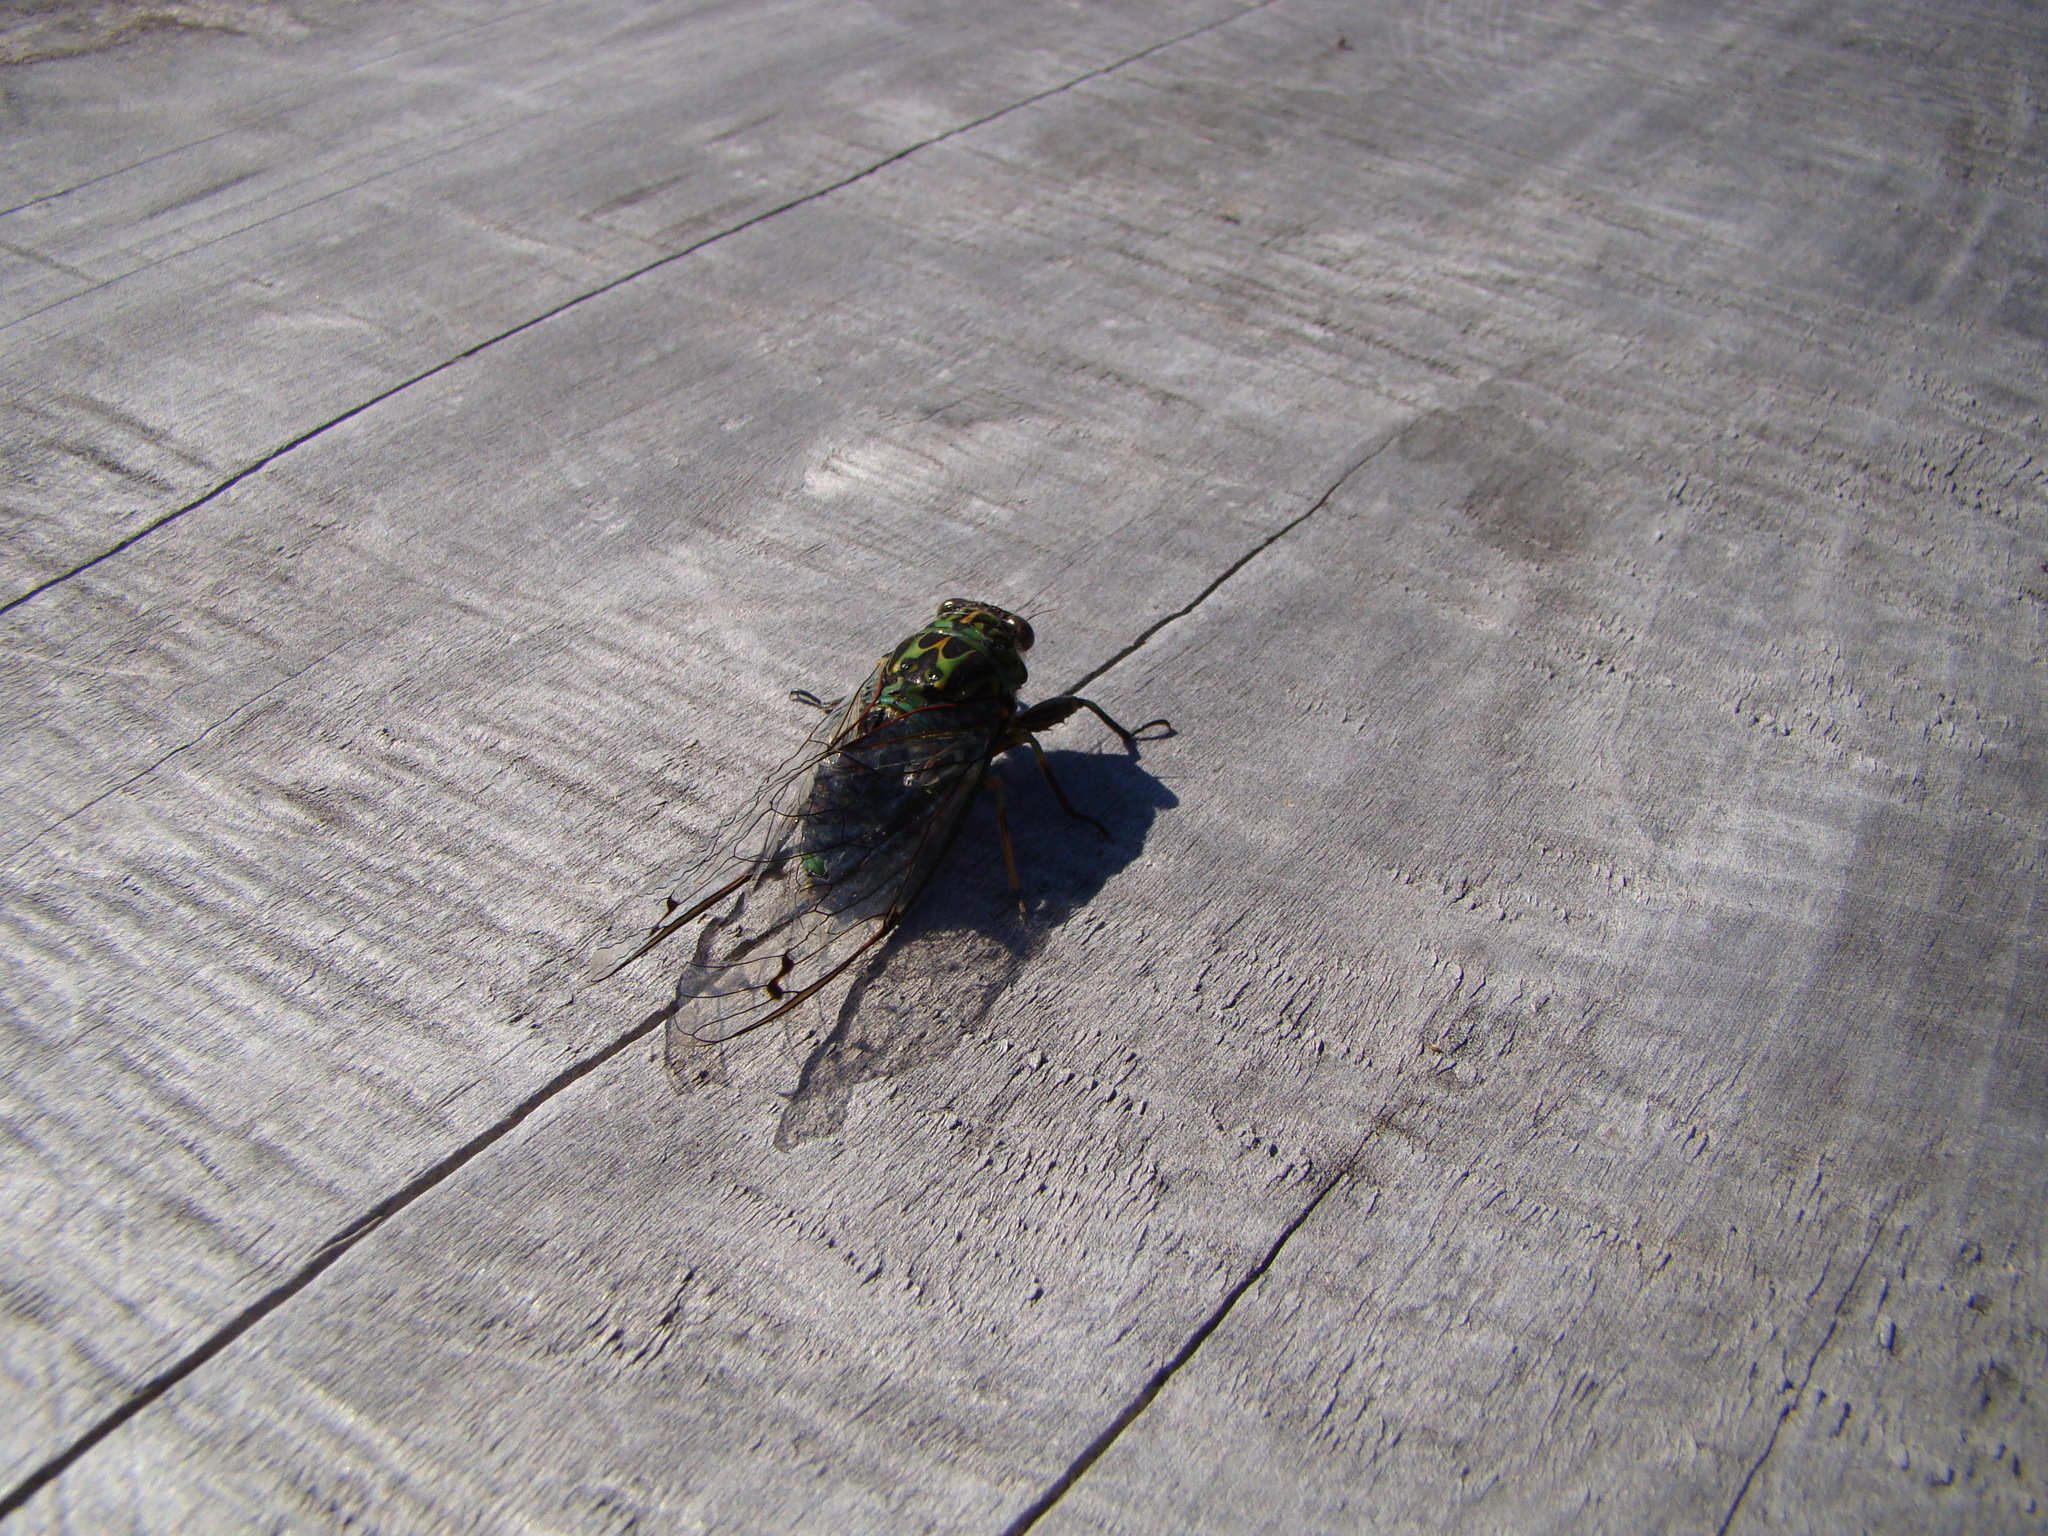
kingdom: Animalia
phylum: Arthropoda
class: Insecta
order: Hemiptera
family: Cicadidae
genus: Amphipsalta
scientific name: Amphipsalta zelandica
